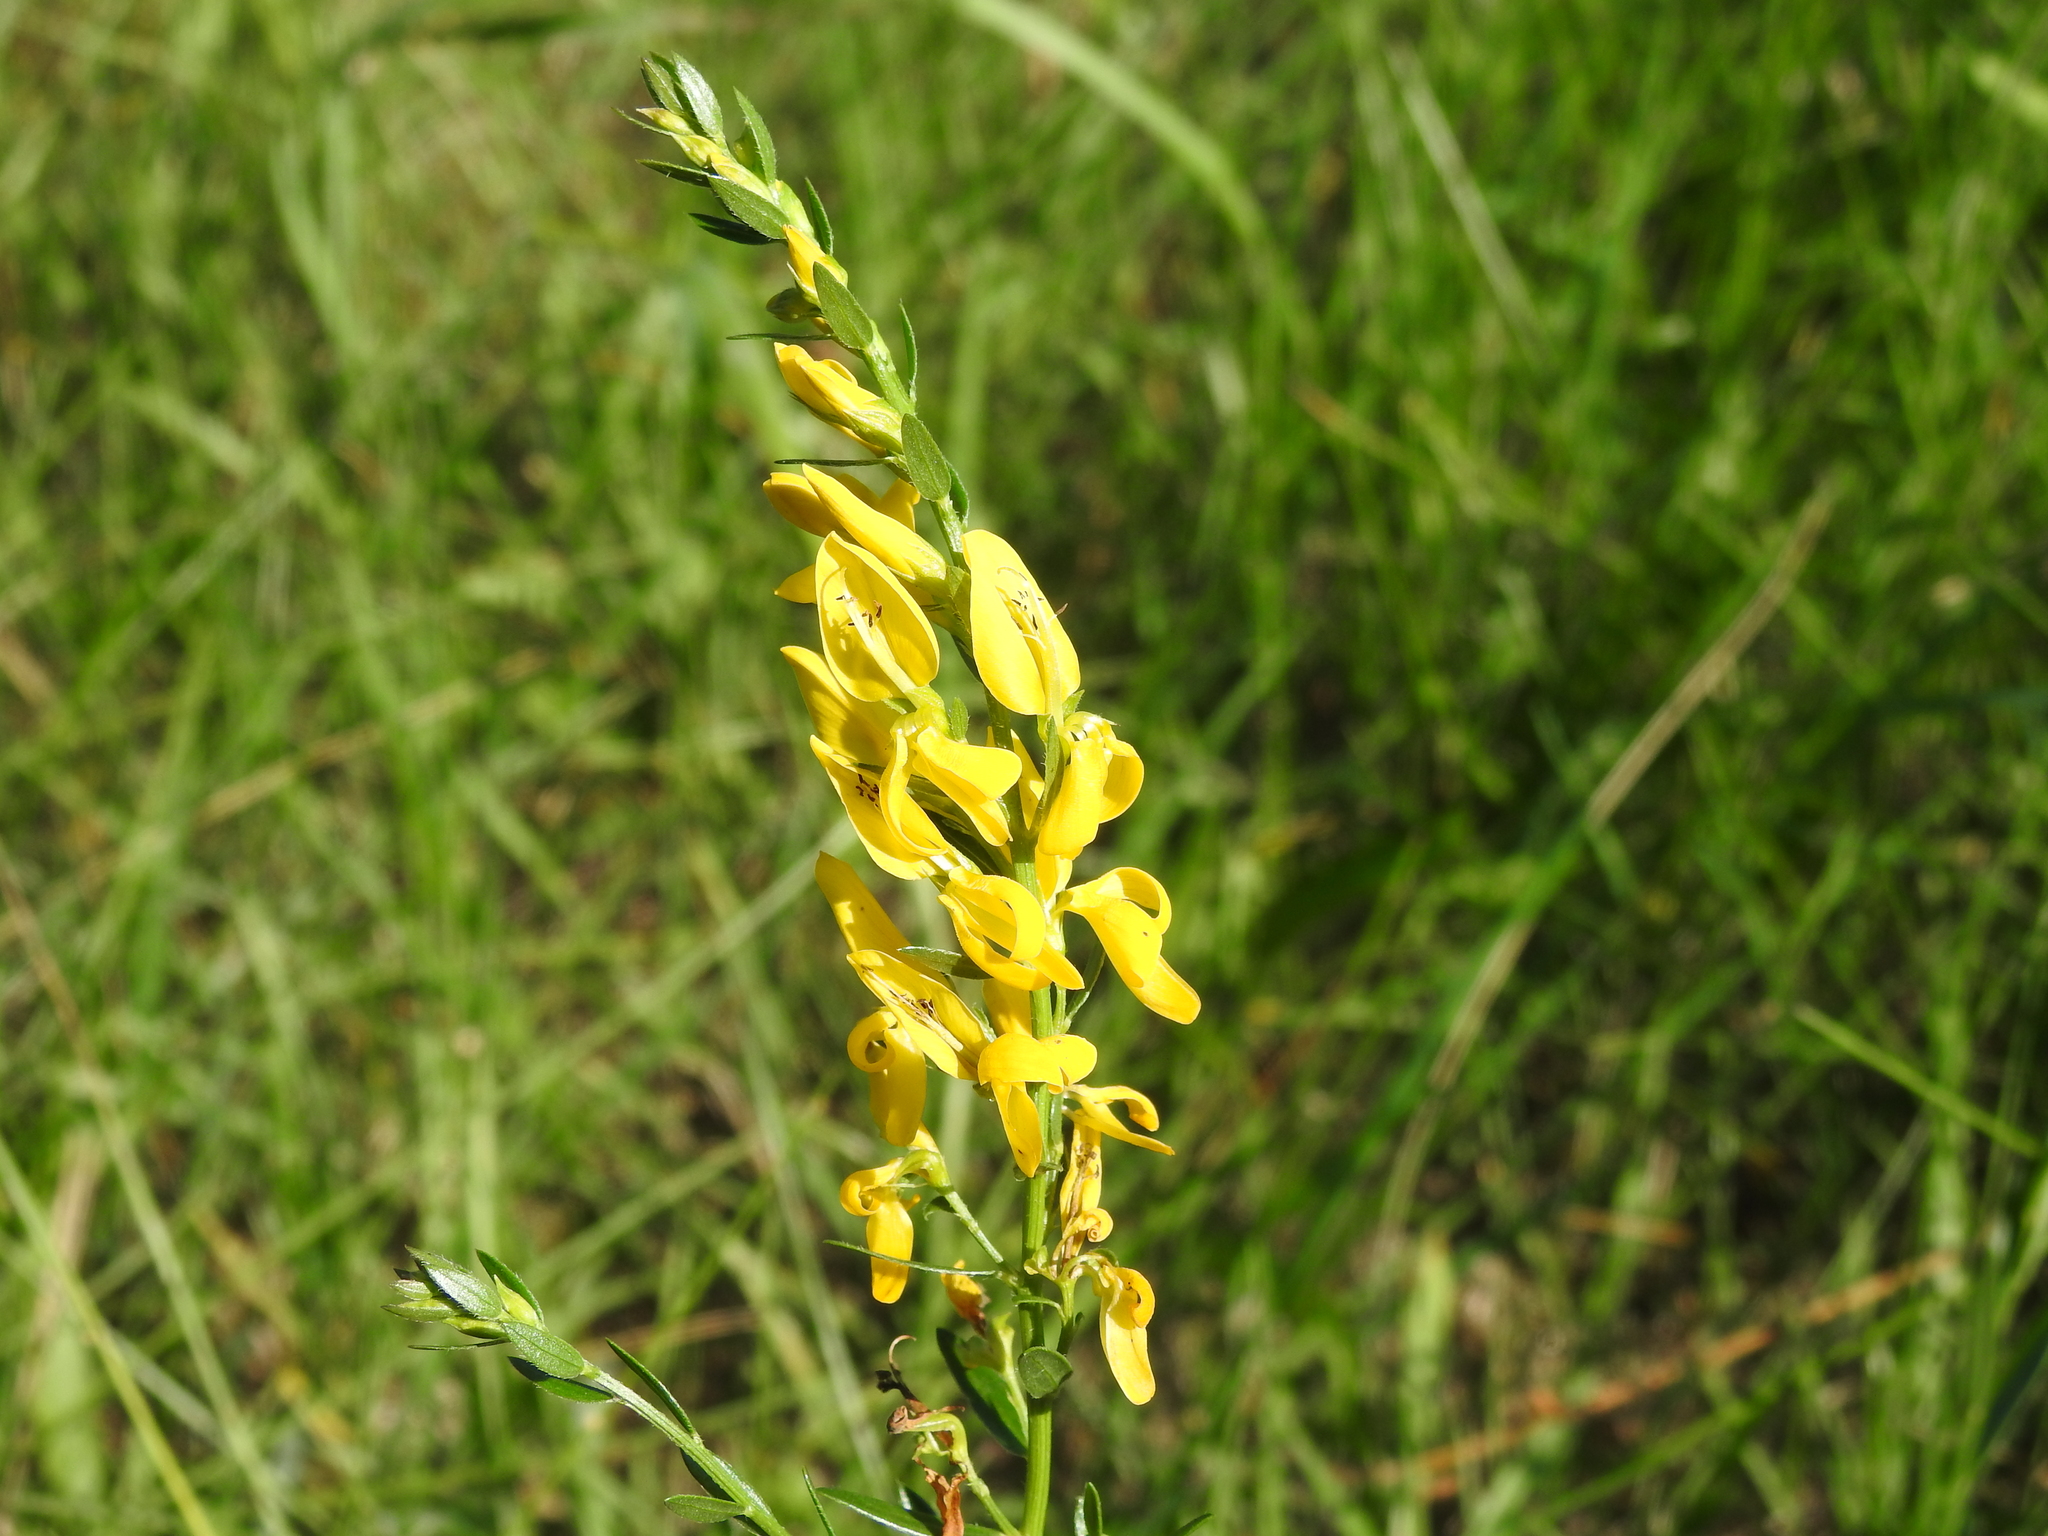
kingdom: Plantae
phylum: Tracheophyta
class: Magnoliopsida
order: Fabales
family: Fabaceae
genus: Genista
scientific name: Genista tinctoria
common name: Dyer's greenweed
